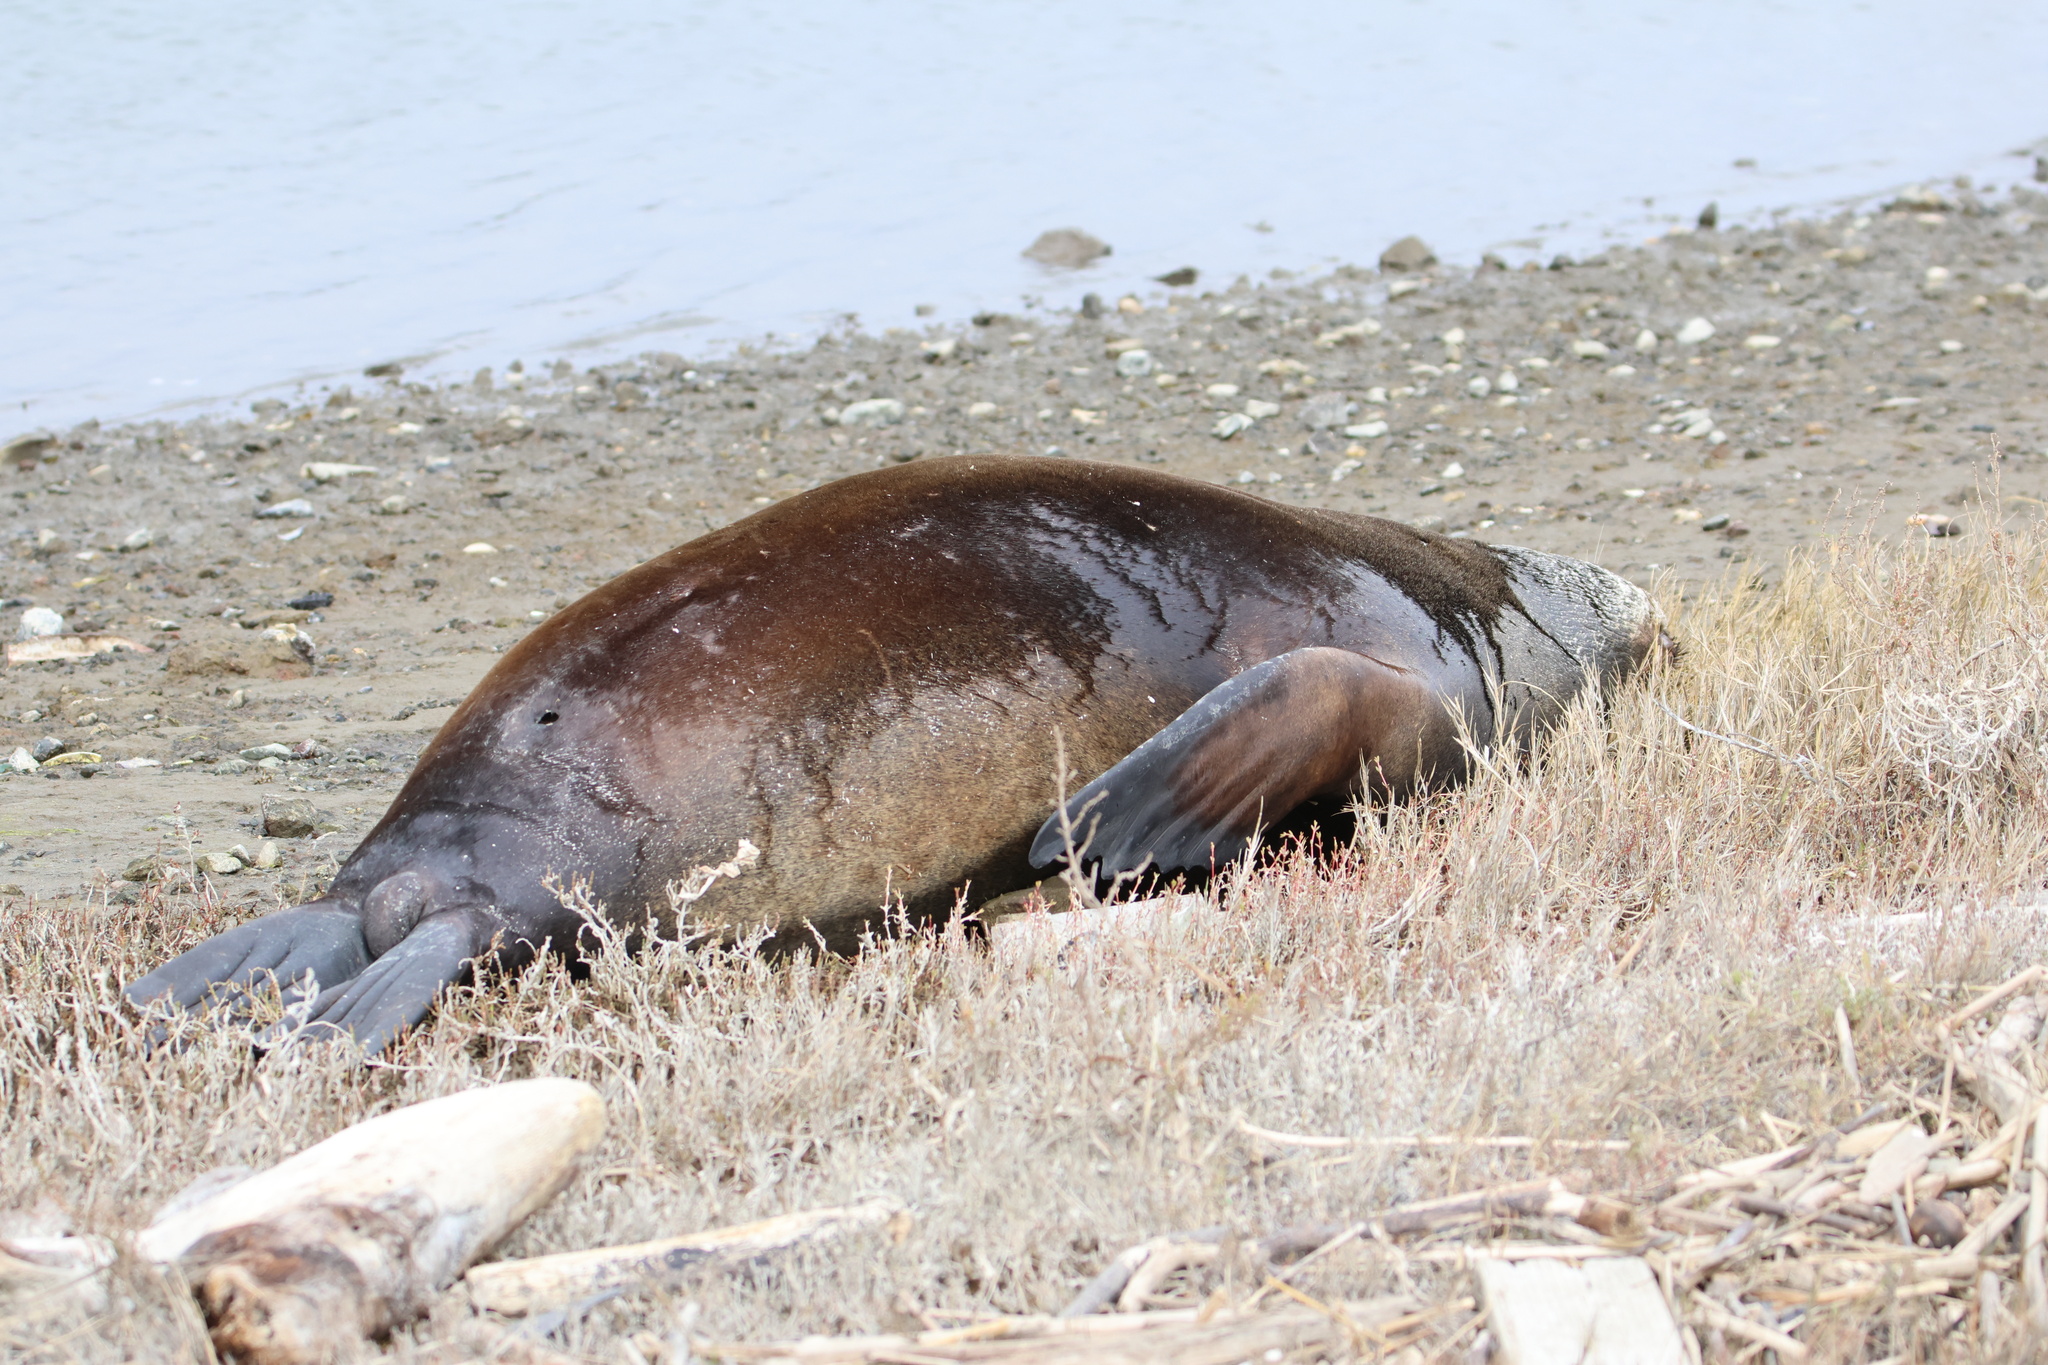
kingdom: Animalia
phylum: Chordata
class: Mammalia
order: Carnivora
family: Otariidae
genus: Zalophus
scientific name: Zalophus californianus
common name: California sea lion
